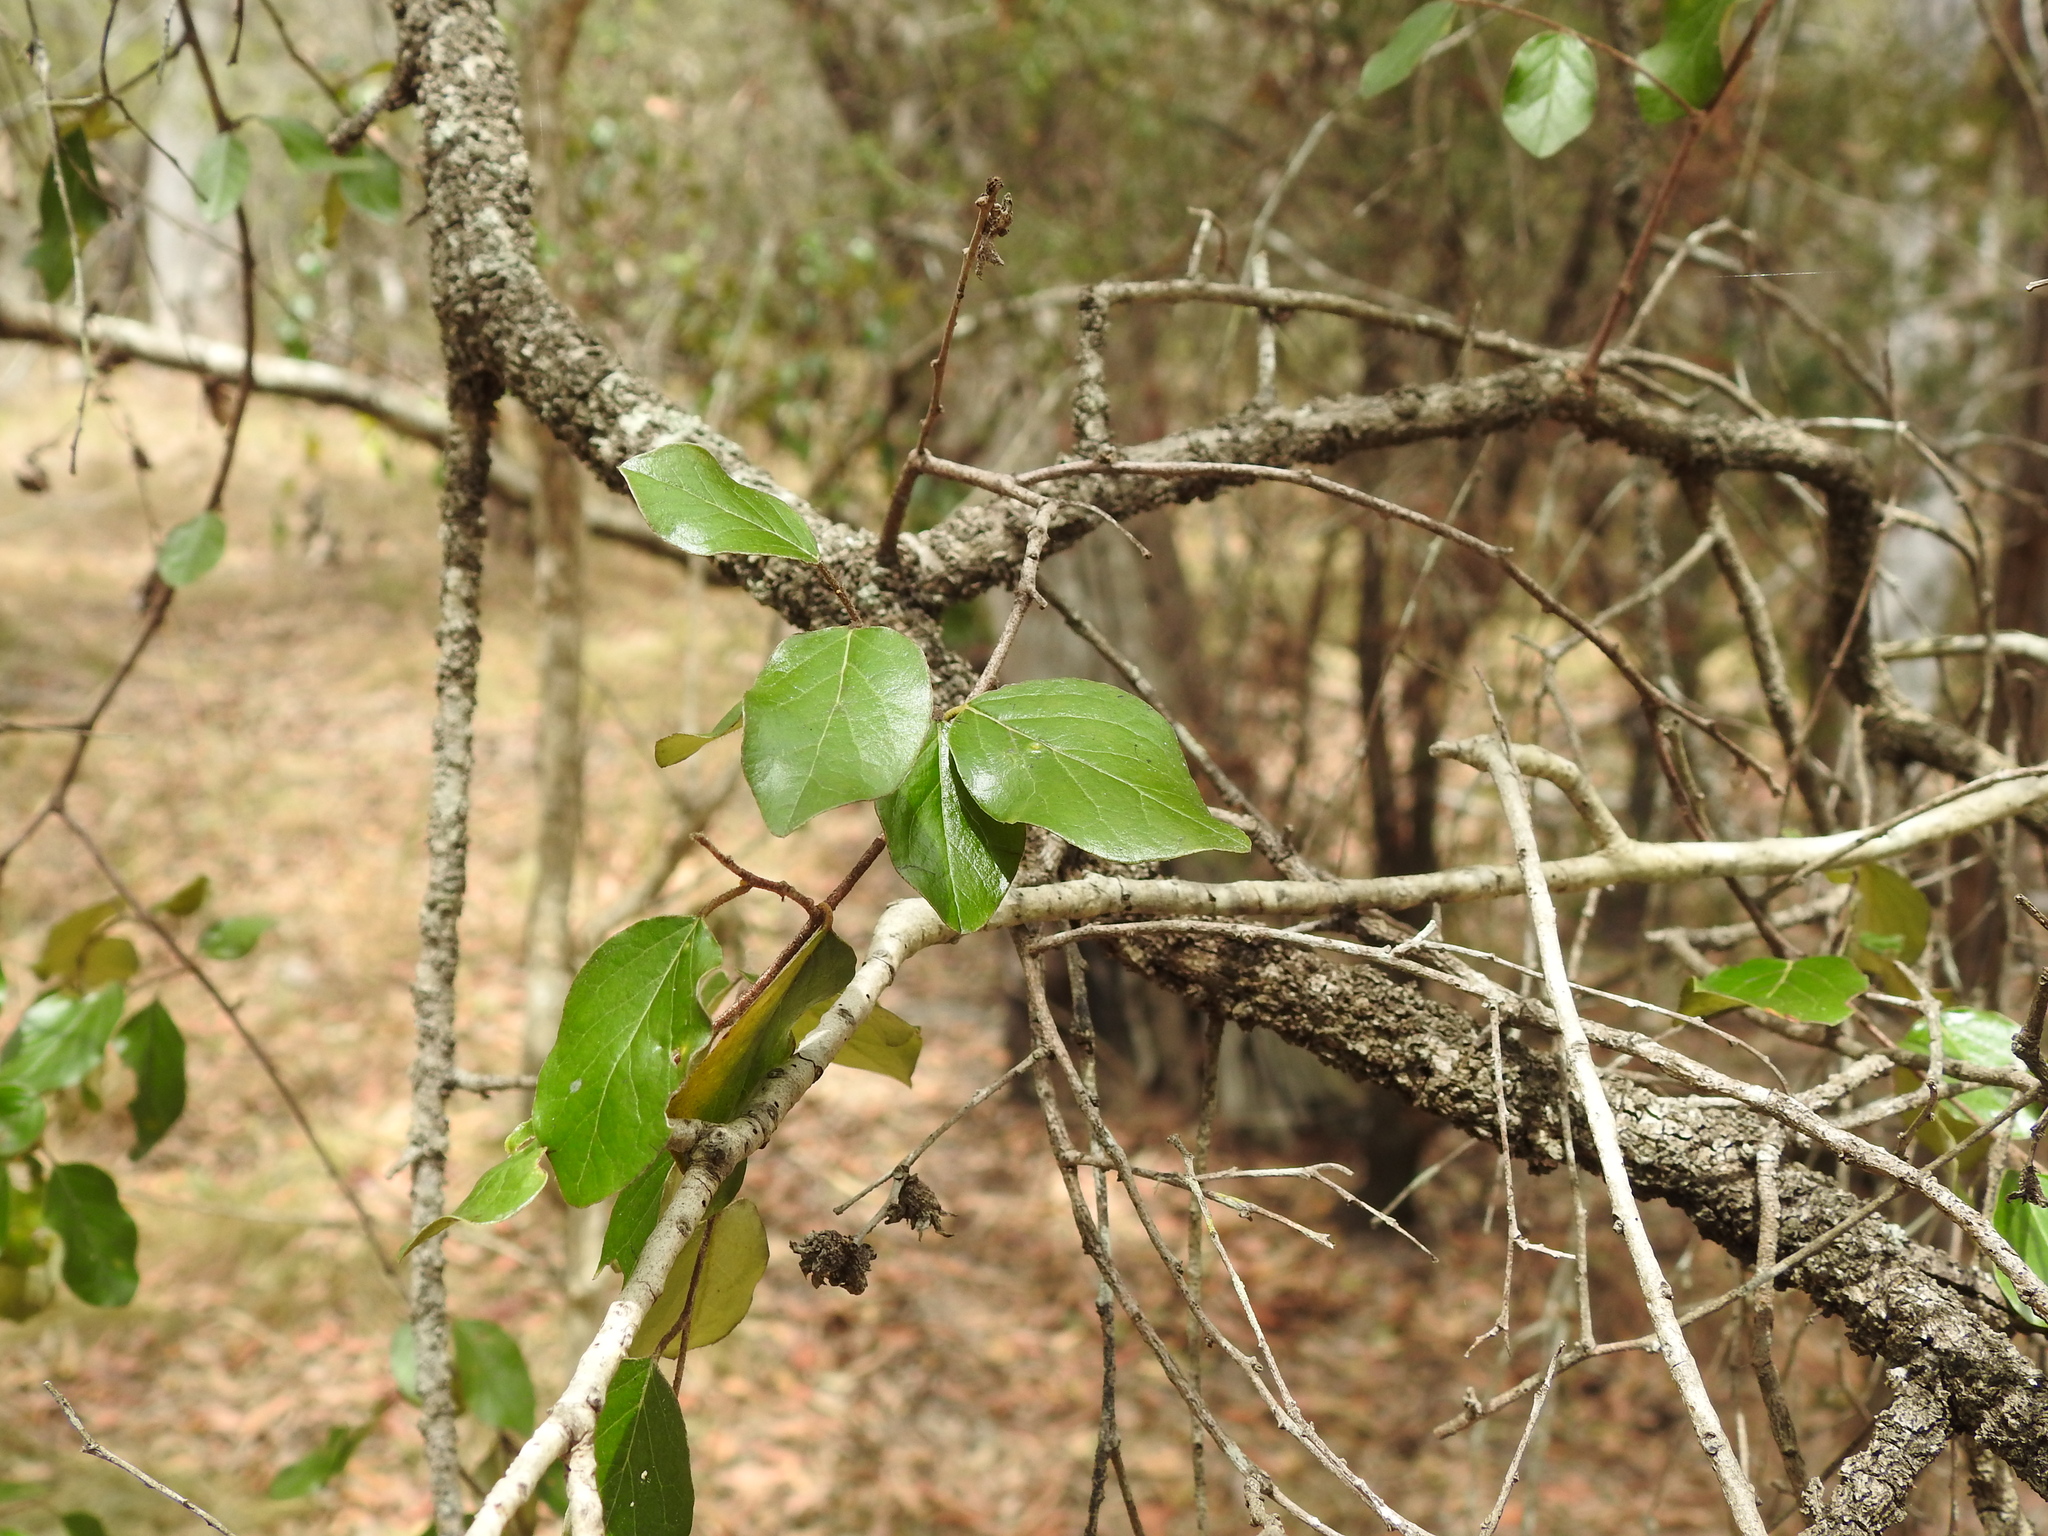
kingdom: Plantae
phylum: Tracheophyta
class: Magnoliopsida
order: Malpighiales
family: Picrodendraceae
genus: Petalostigma
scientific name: Petalostigma pubescens
